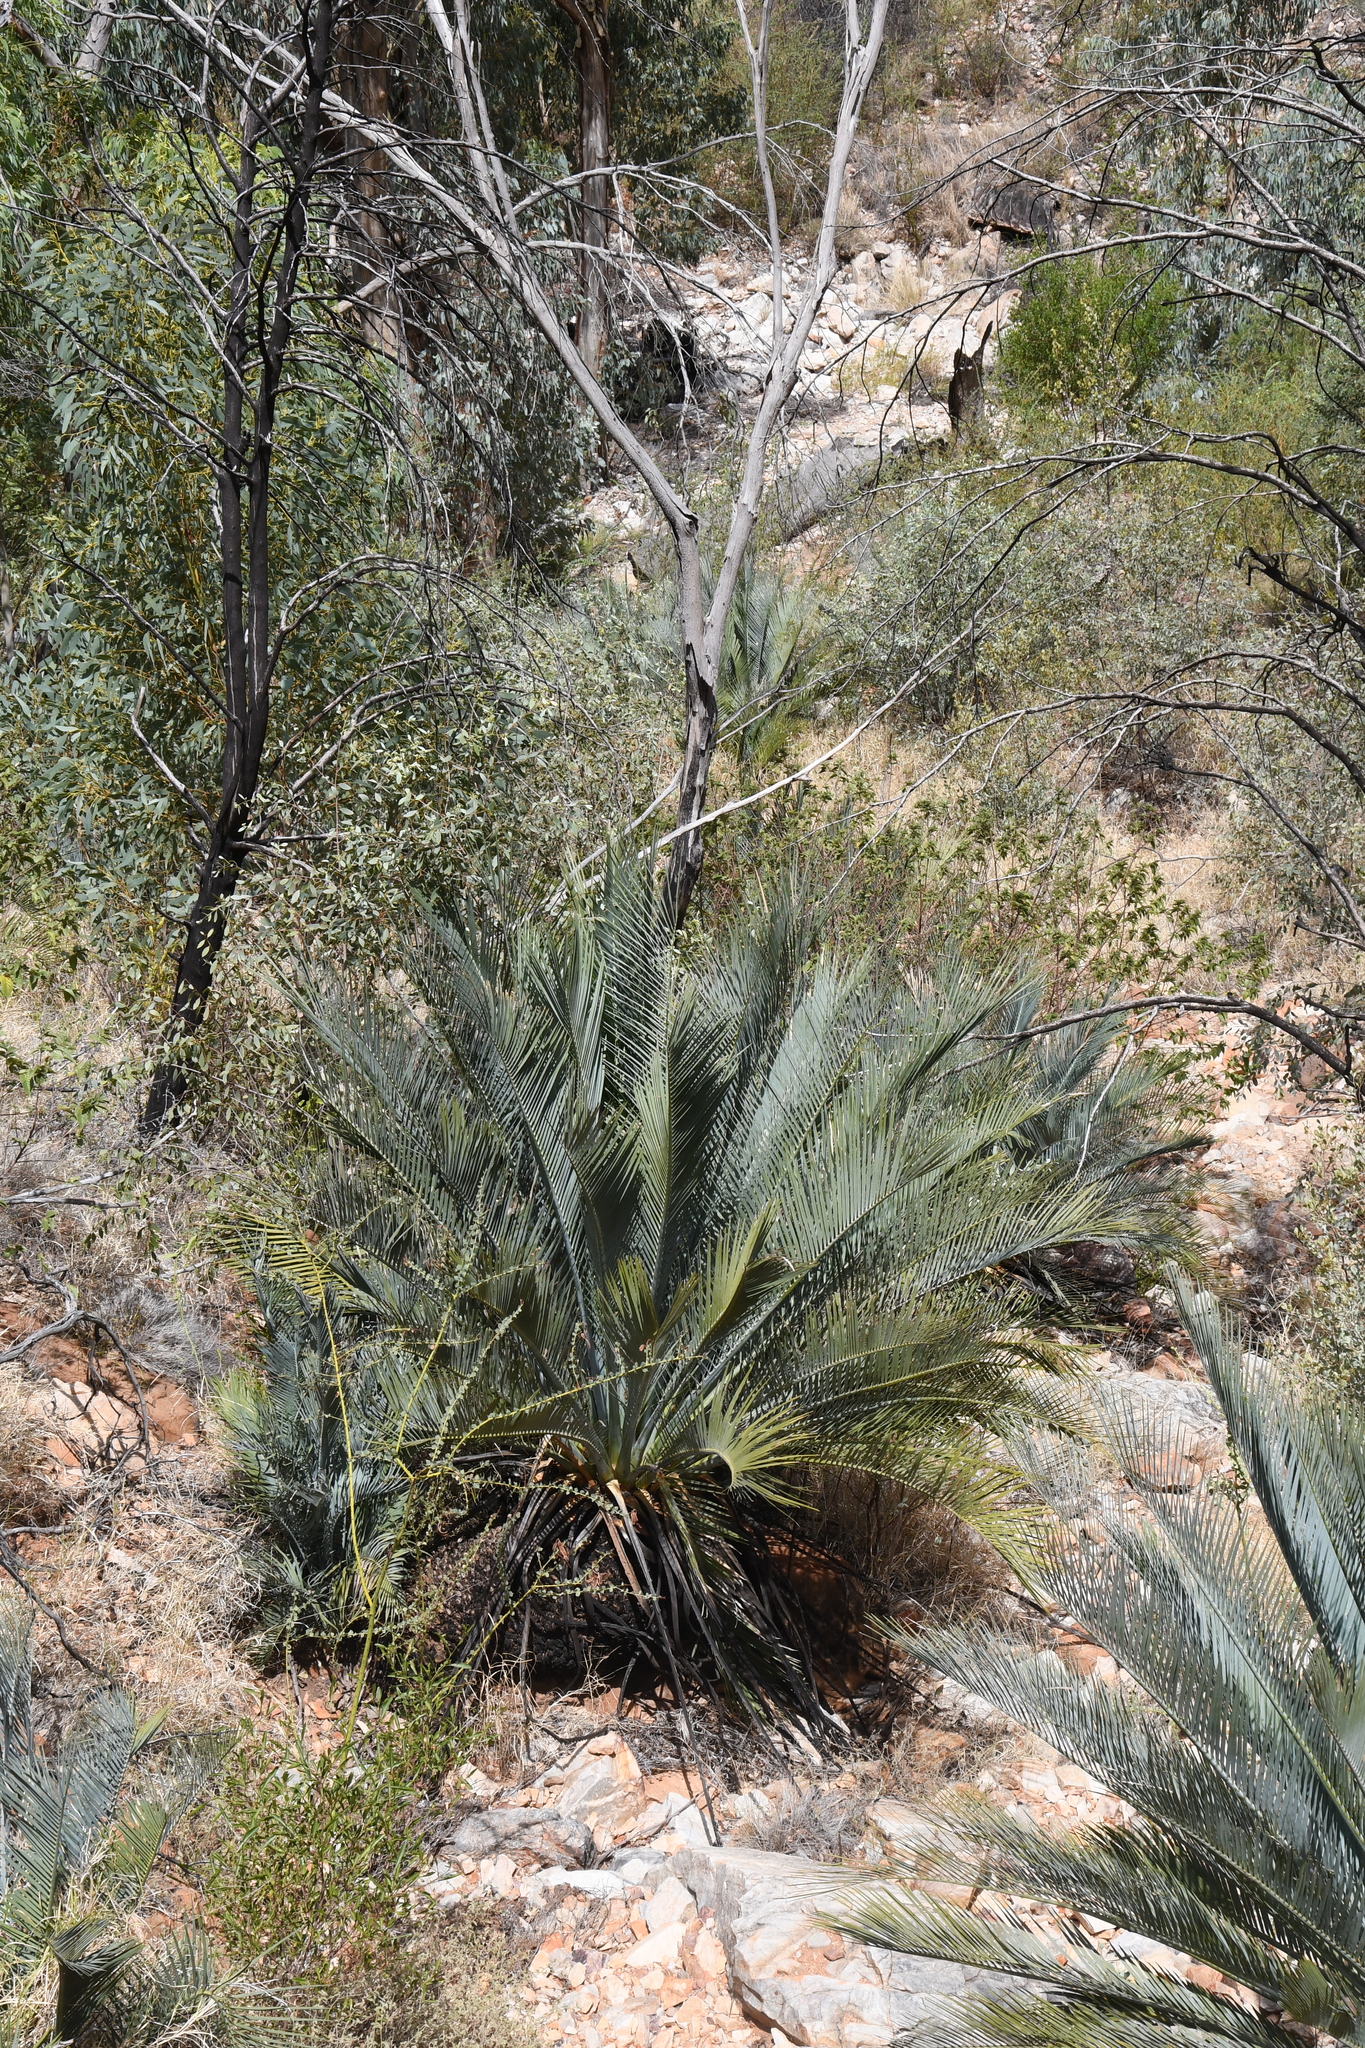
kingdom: Plantae
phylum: Tracheophyta
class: Cycadopsida
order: Cycadales
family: Zamiaceae
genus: Macrozamia
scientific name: Macrozamia macdonnellii
